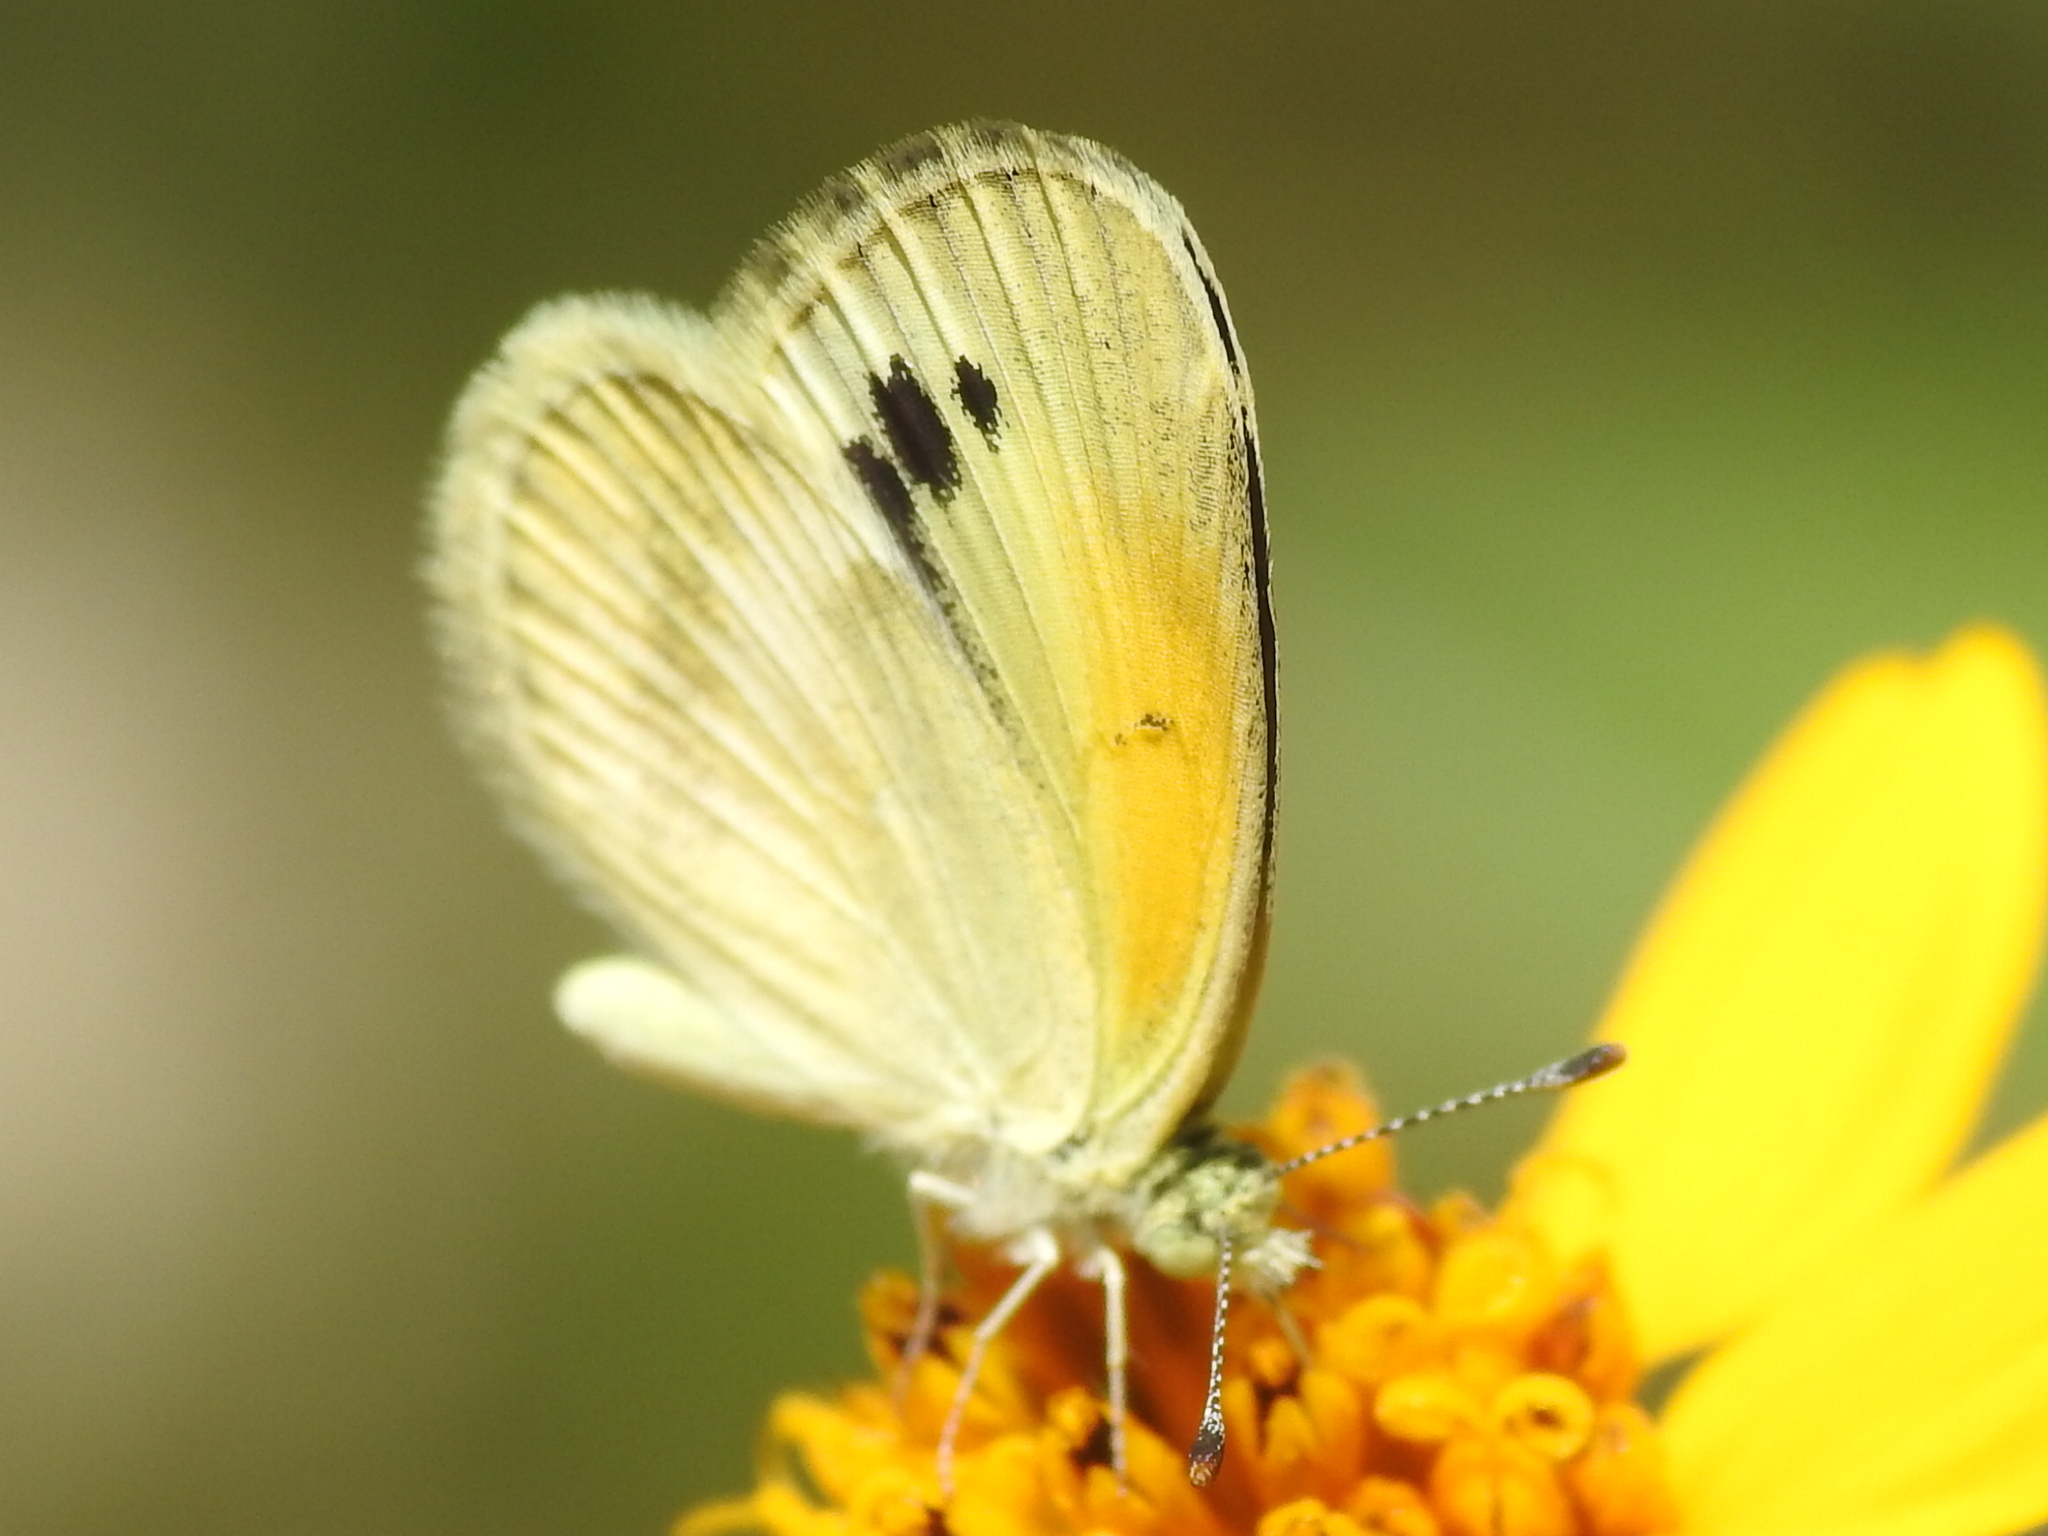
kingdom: Animalia
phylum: Arthropoda
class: Insecta
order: Lepidoptera
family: Pieridae
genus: Nathalis
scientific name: Nathalis iole
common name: Dainty sulphur
